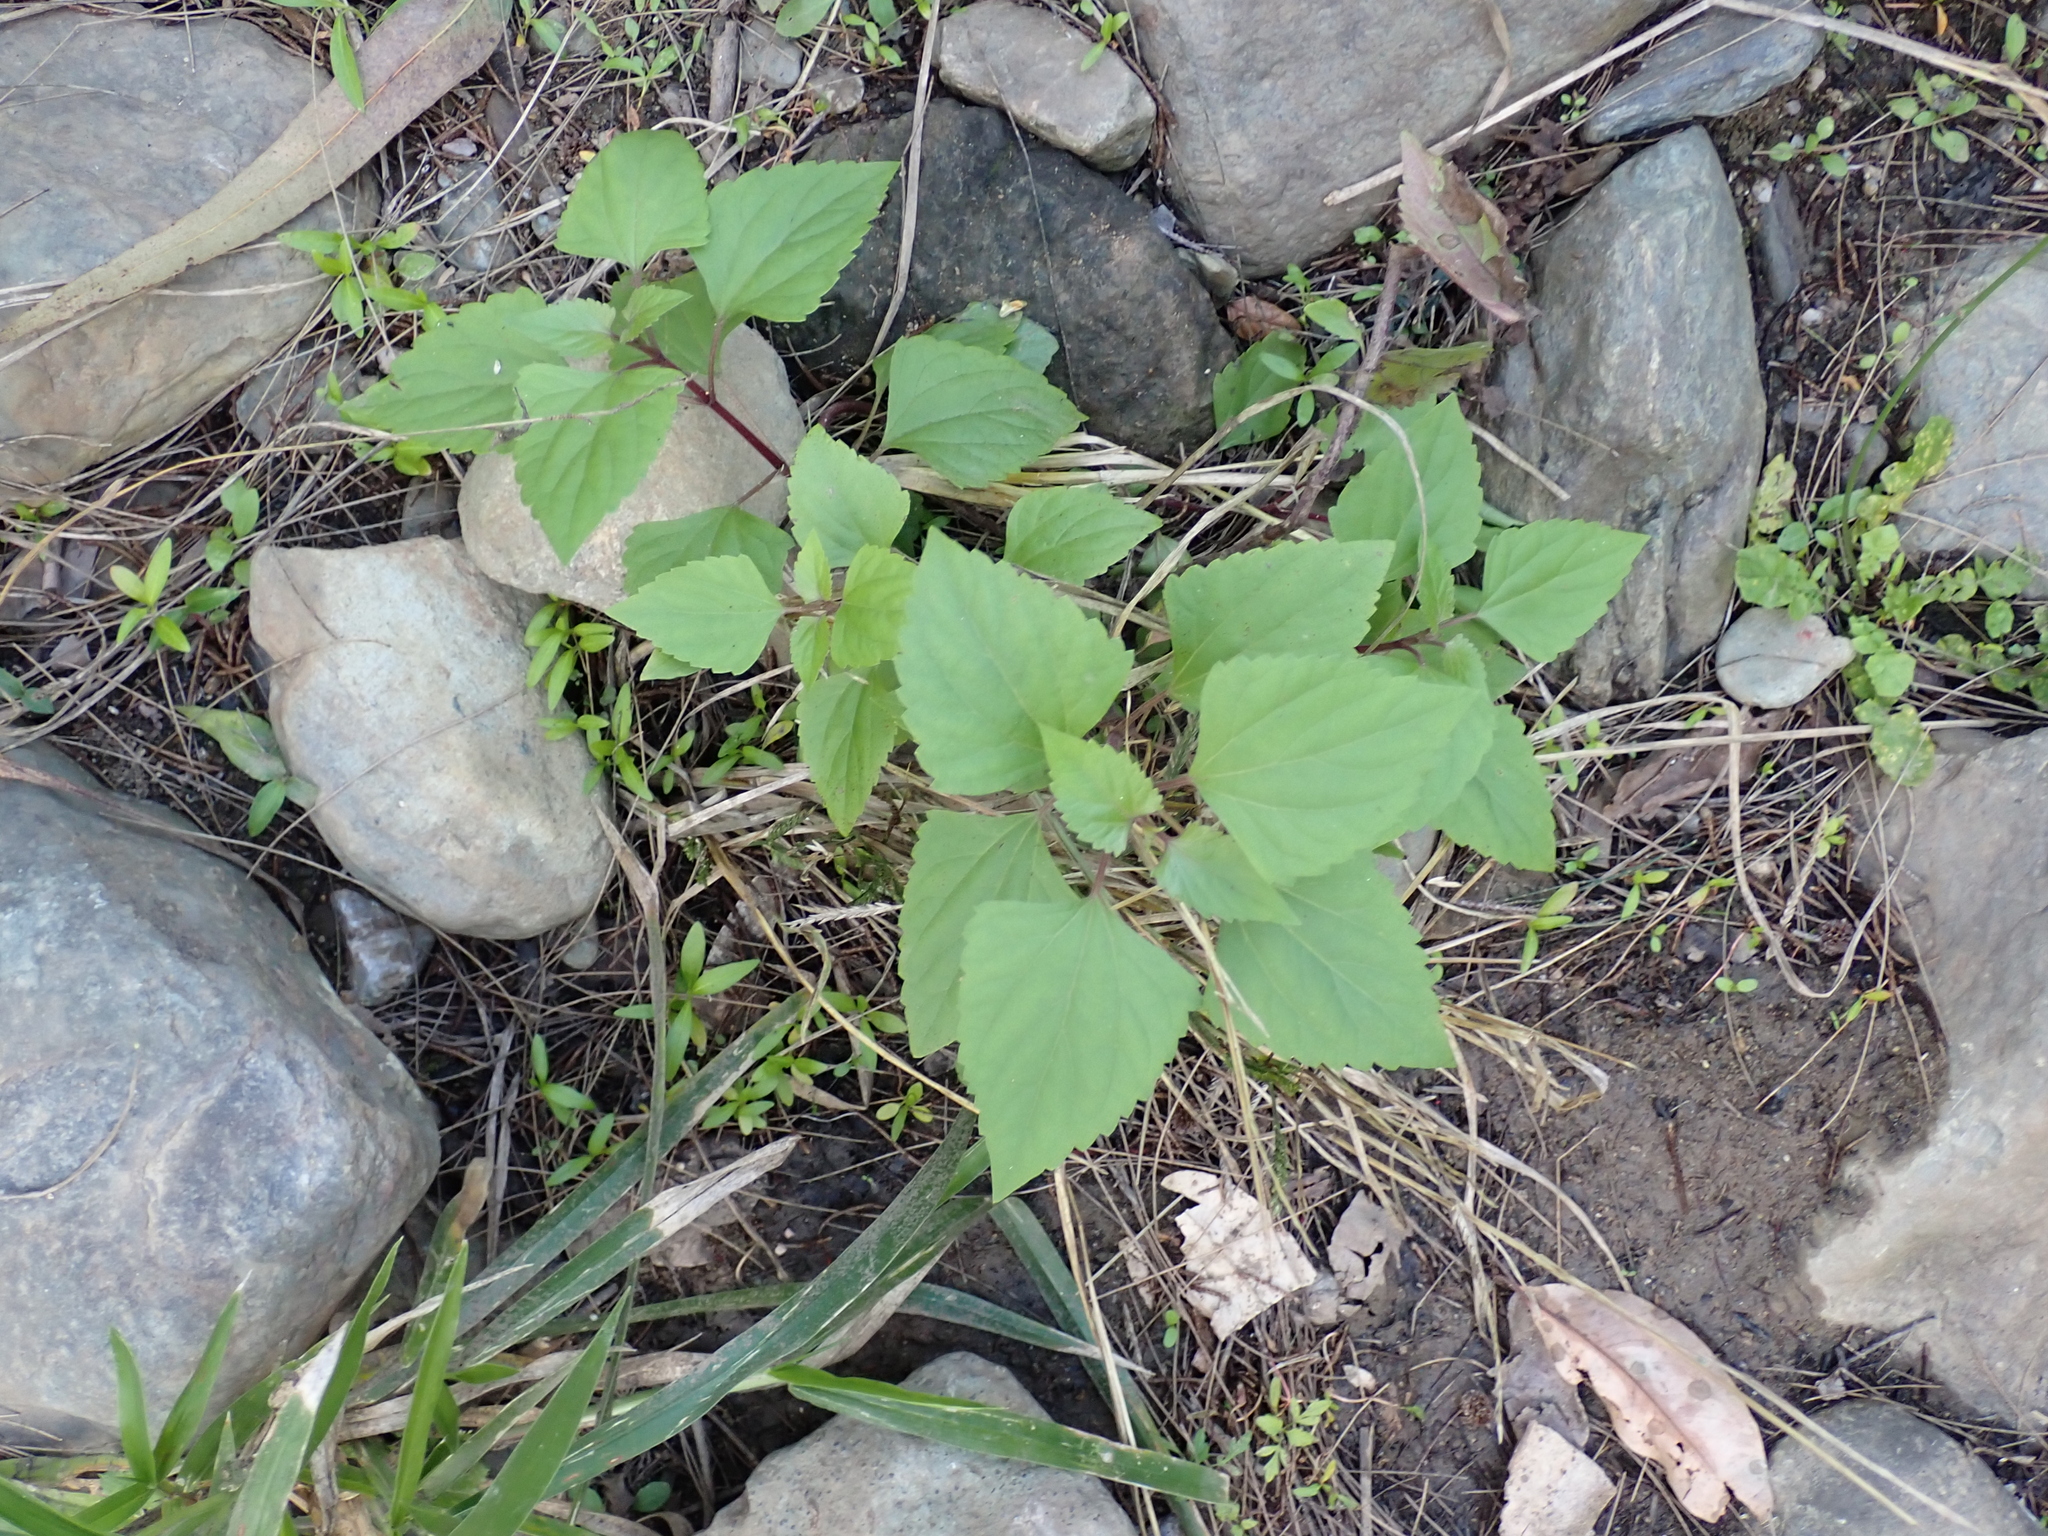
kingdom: Plantae
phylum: Tracheophyta
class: Magnoliopsida
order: Asterales
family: Asteraceae
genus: Ageratina
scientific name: Ageratina adenophora
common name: Sticky snakeroot
